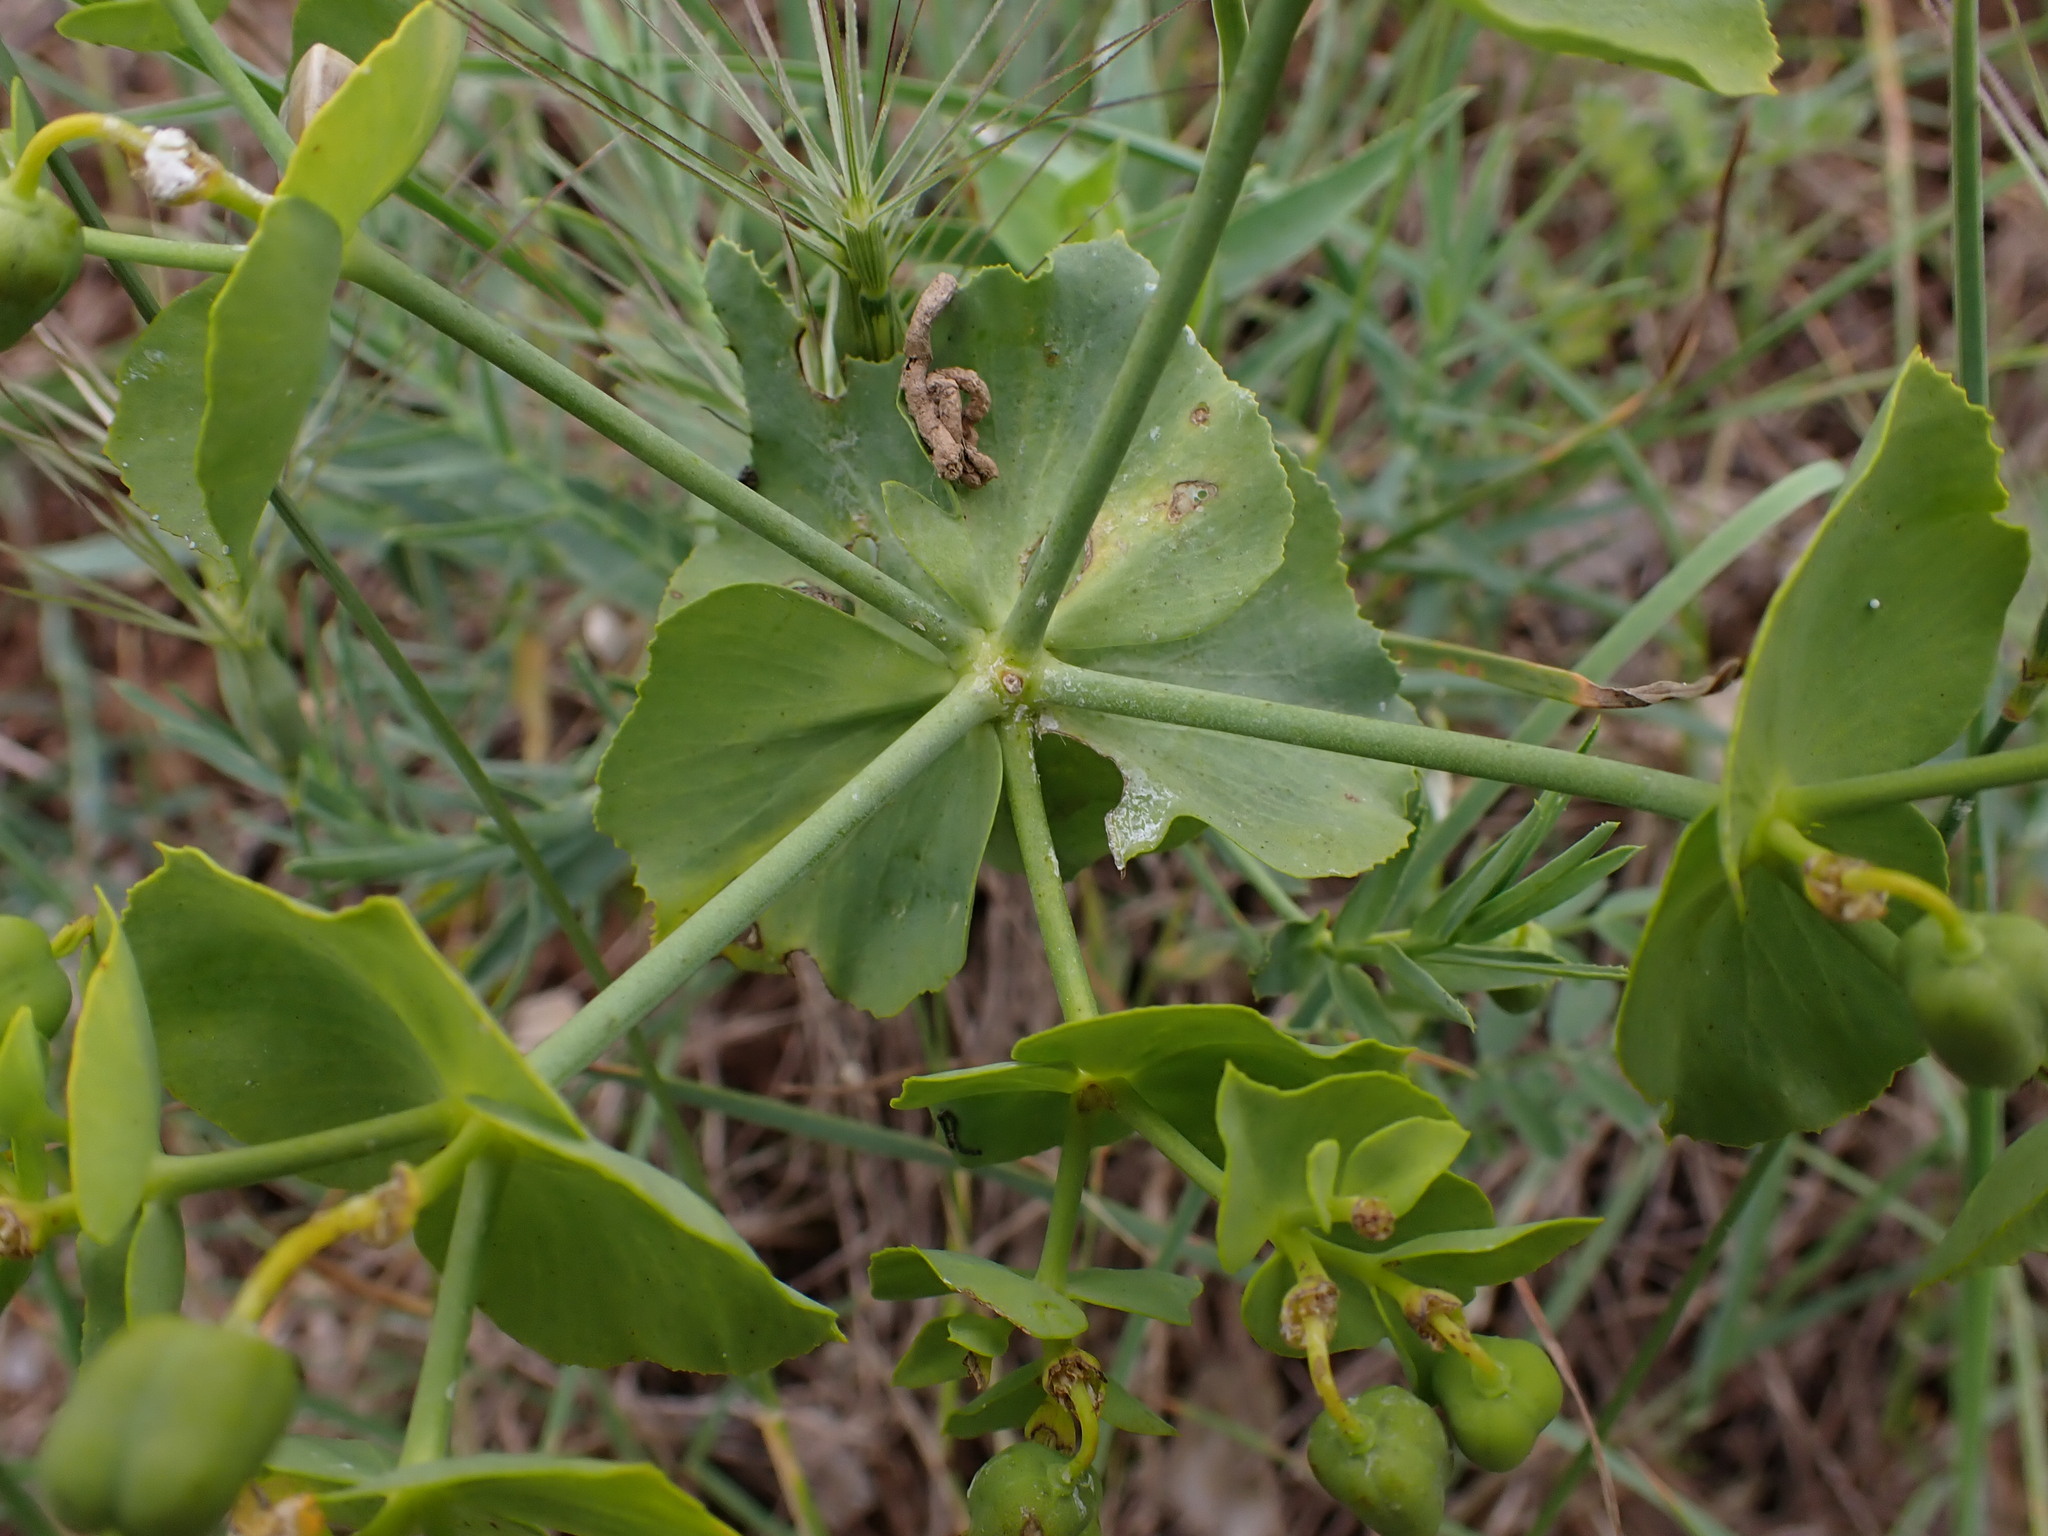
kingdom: Plantae
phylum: Tracheophyta
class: Magnoliopsida
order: Malpighiales
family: Euphorbiaceae
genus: Euphorbia
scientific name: Euphorbia serrata
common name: Serrate spurge
